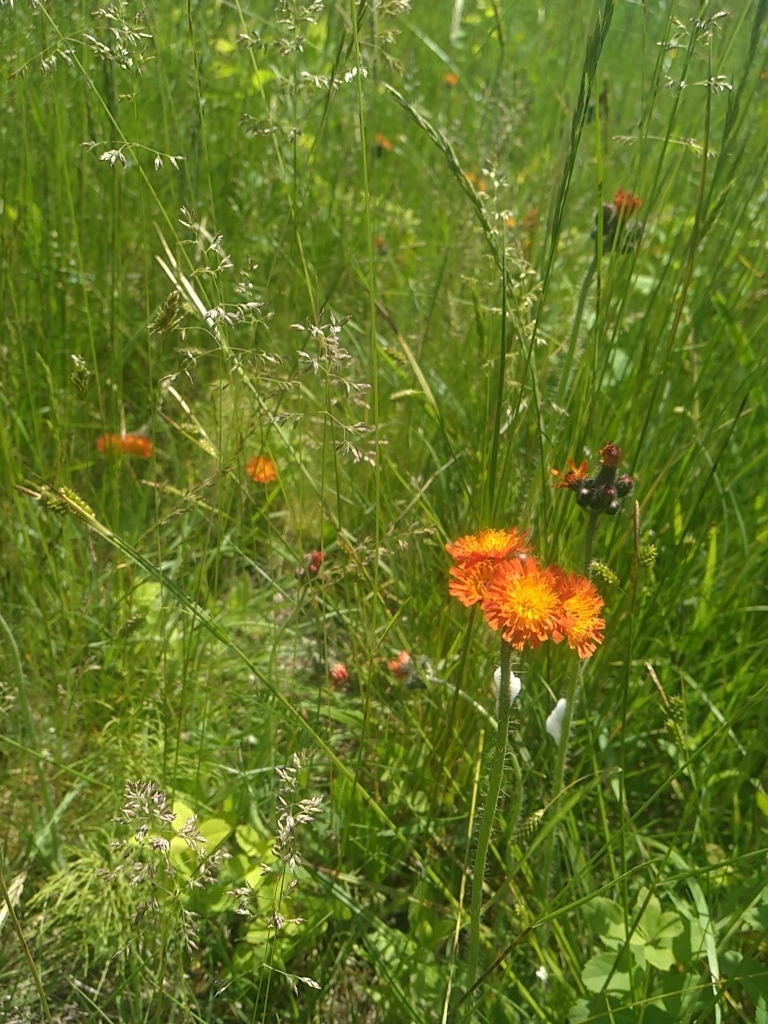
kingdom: Plantae
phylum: Tracheophyta
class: Magnoliopsida
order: Asterales
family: Asteraceae
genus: Pilosella
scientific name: Pilosella aurantiaca
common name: Fox-and-cubs
